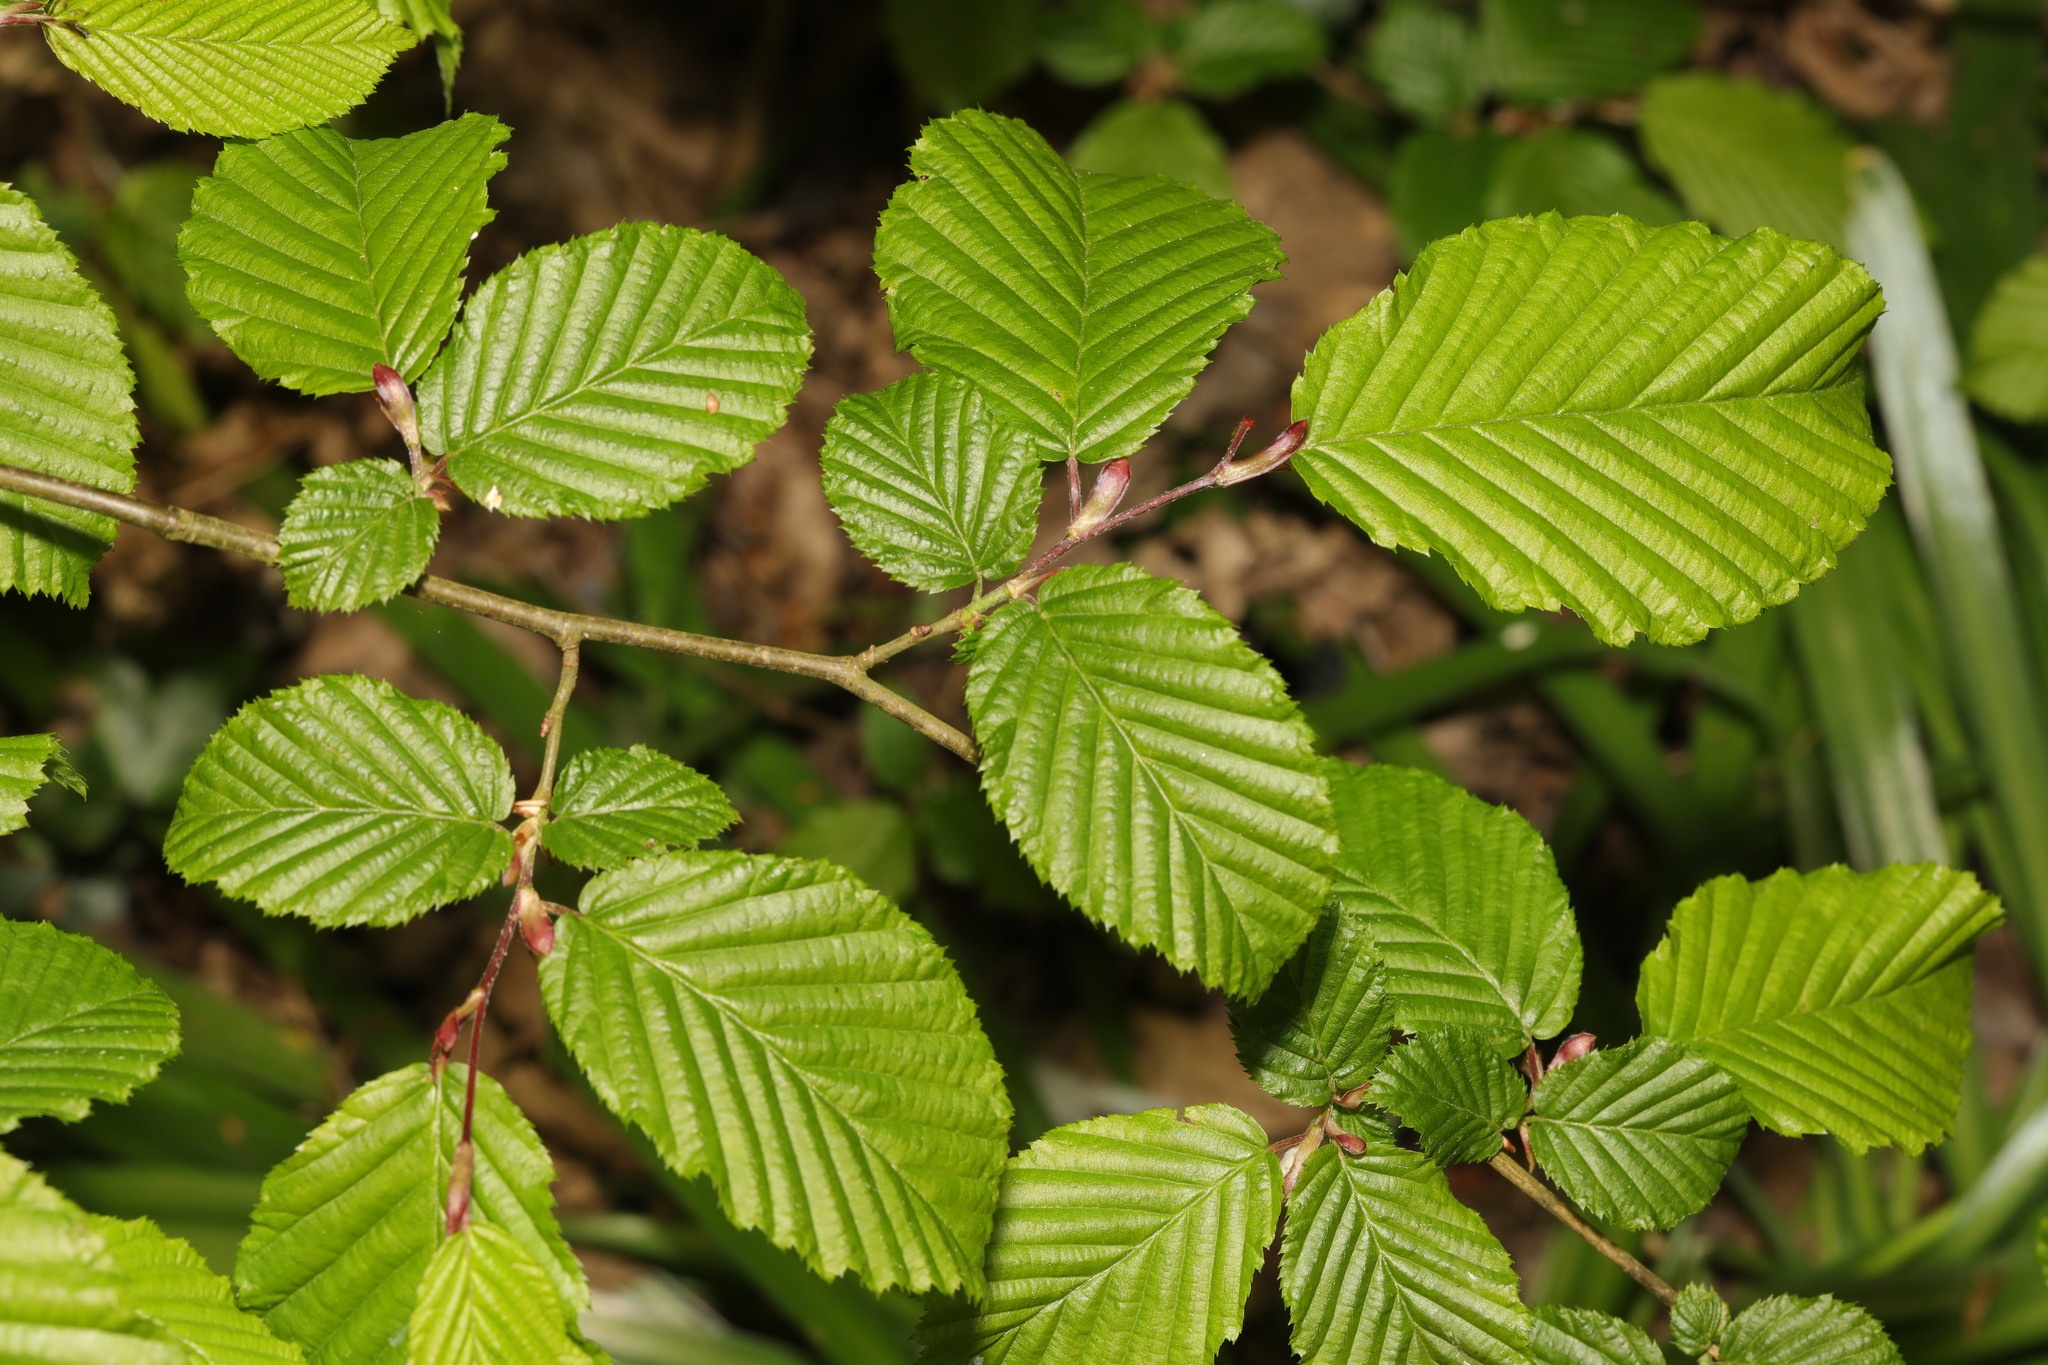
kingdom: Plantae
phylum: Tracheophyta
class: Magnoliopsida
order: Fagales
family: Betulaceae
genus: Carpinus
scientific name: Carpinus betulus
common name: Hornbeam
